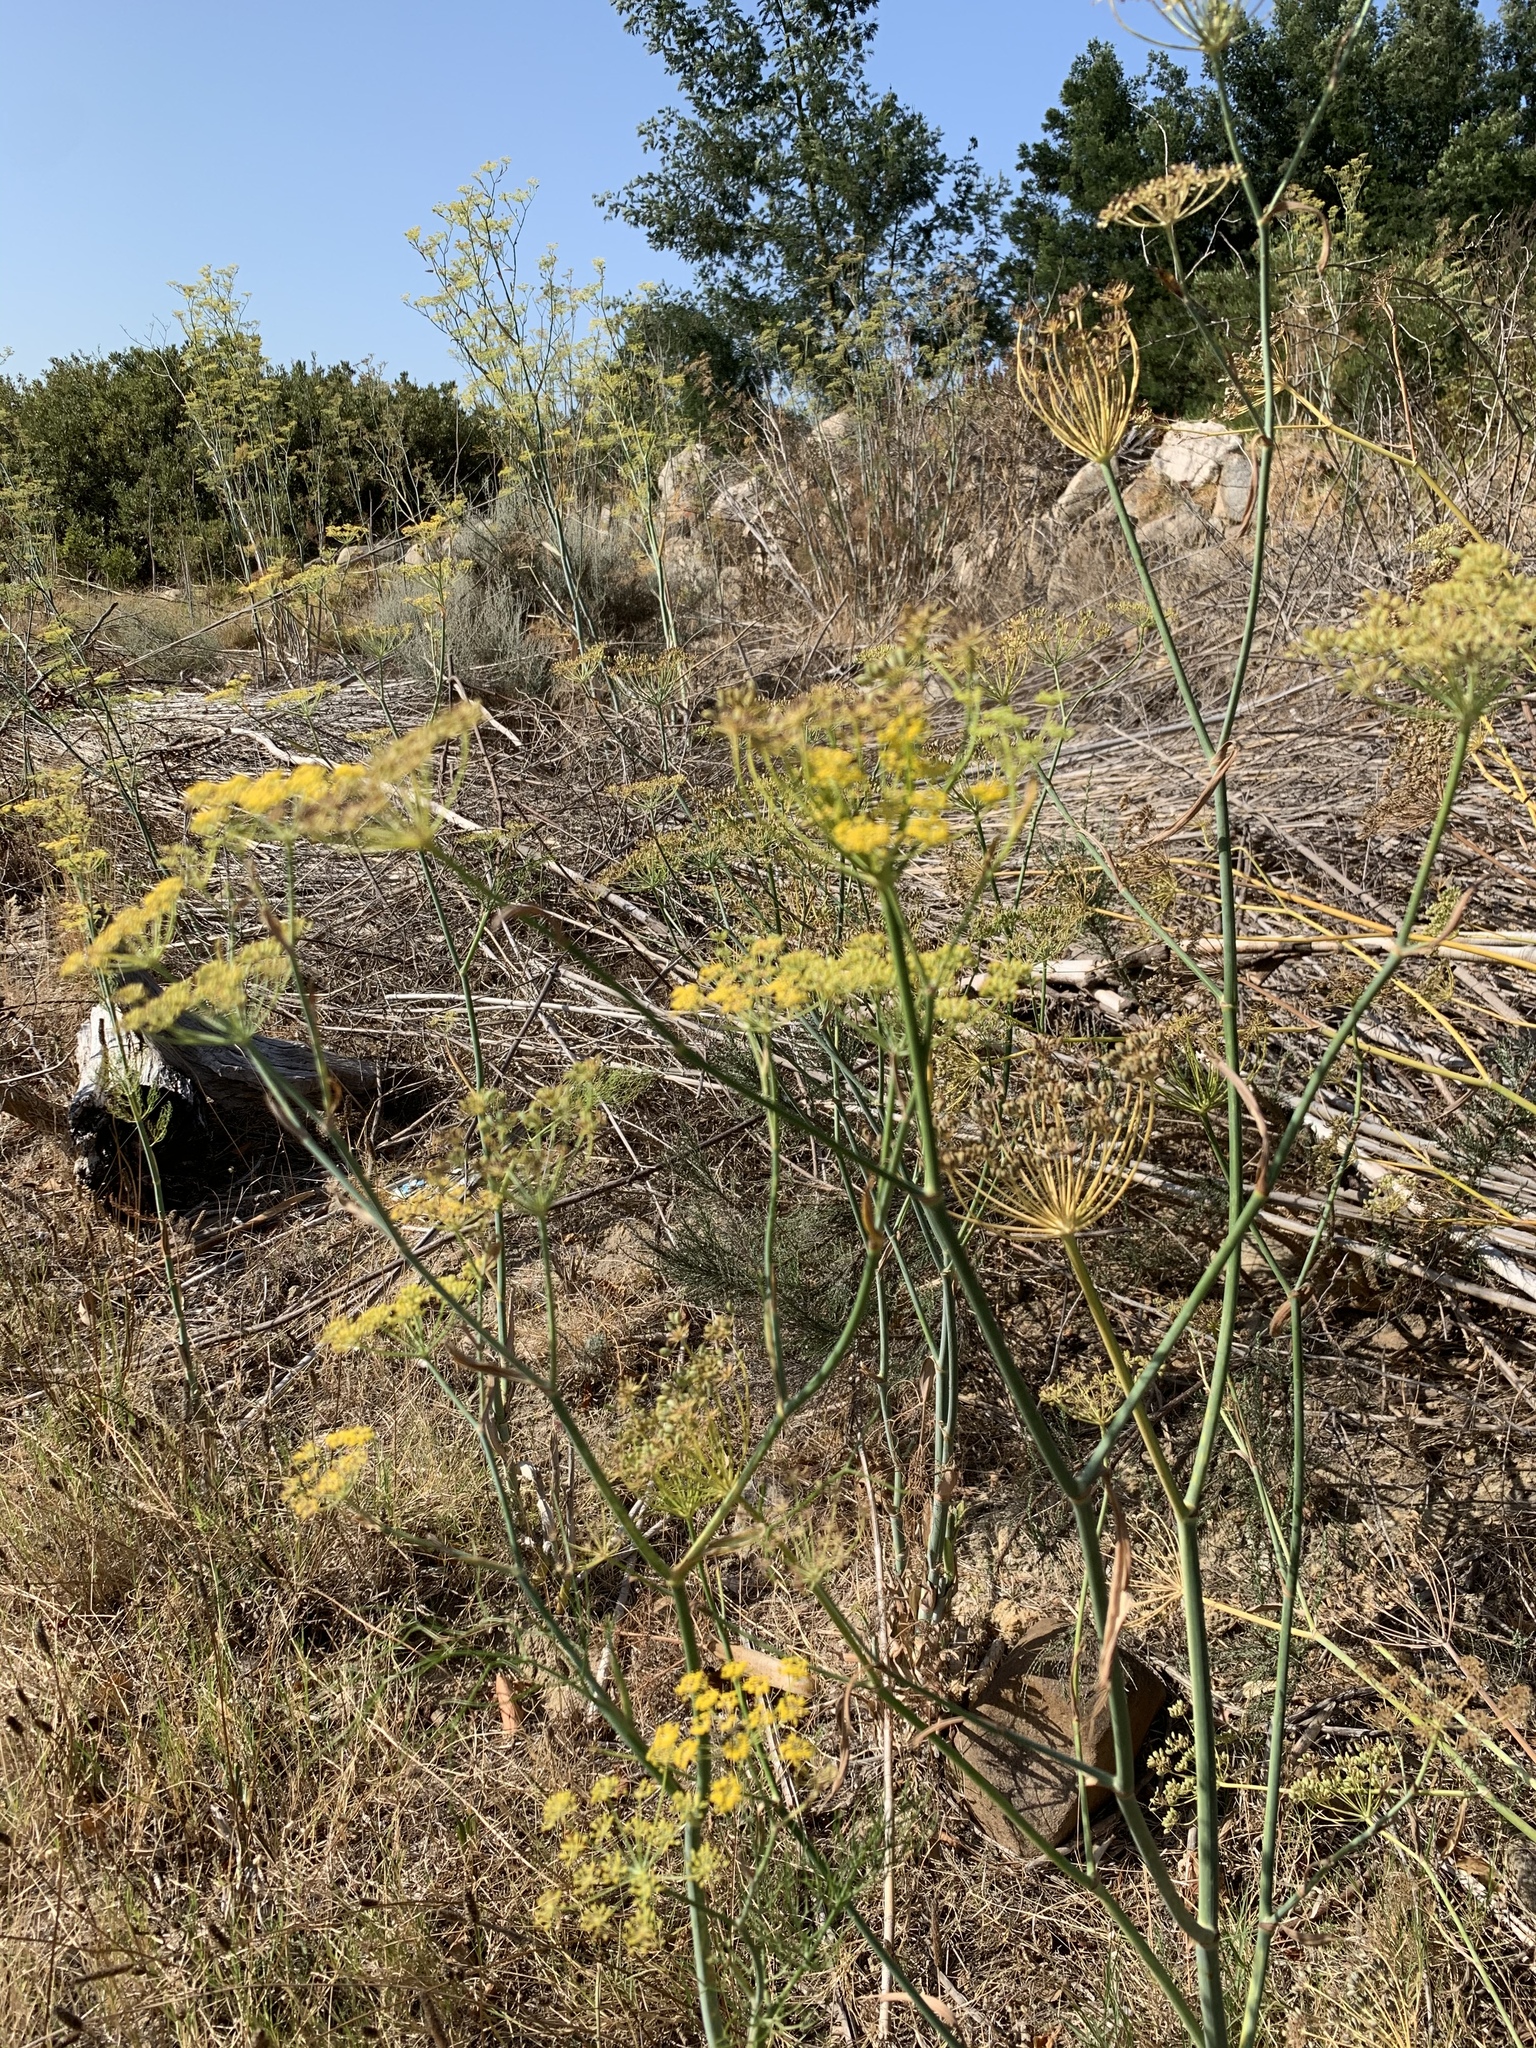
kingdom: Plantae
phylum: Tracheophyta
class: Magnoliopsida
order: Apiales
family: Apiaceae
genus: Foeniculum
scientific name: Foeniculum vulgare
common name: Fennel
